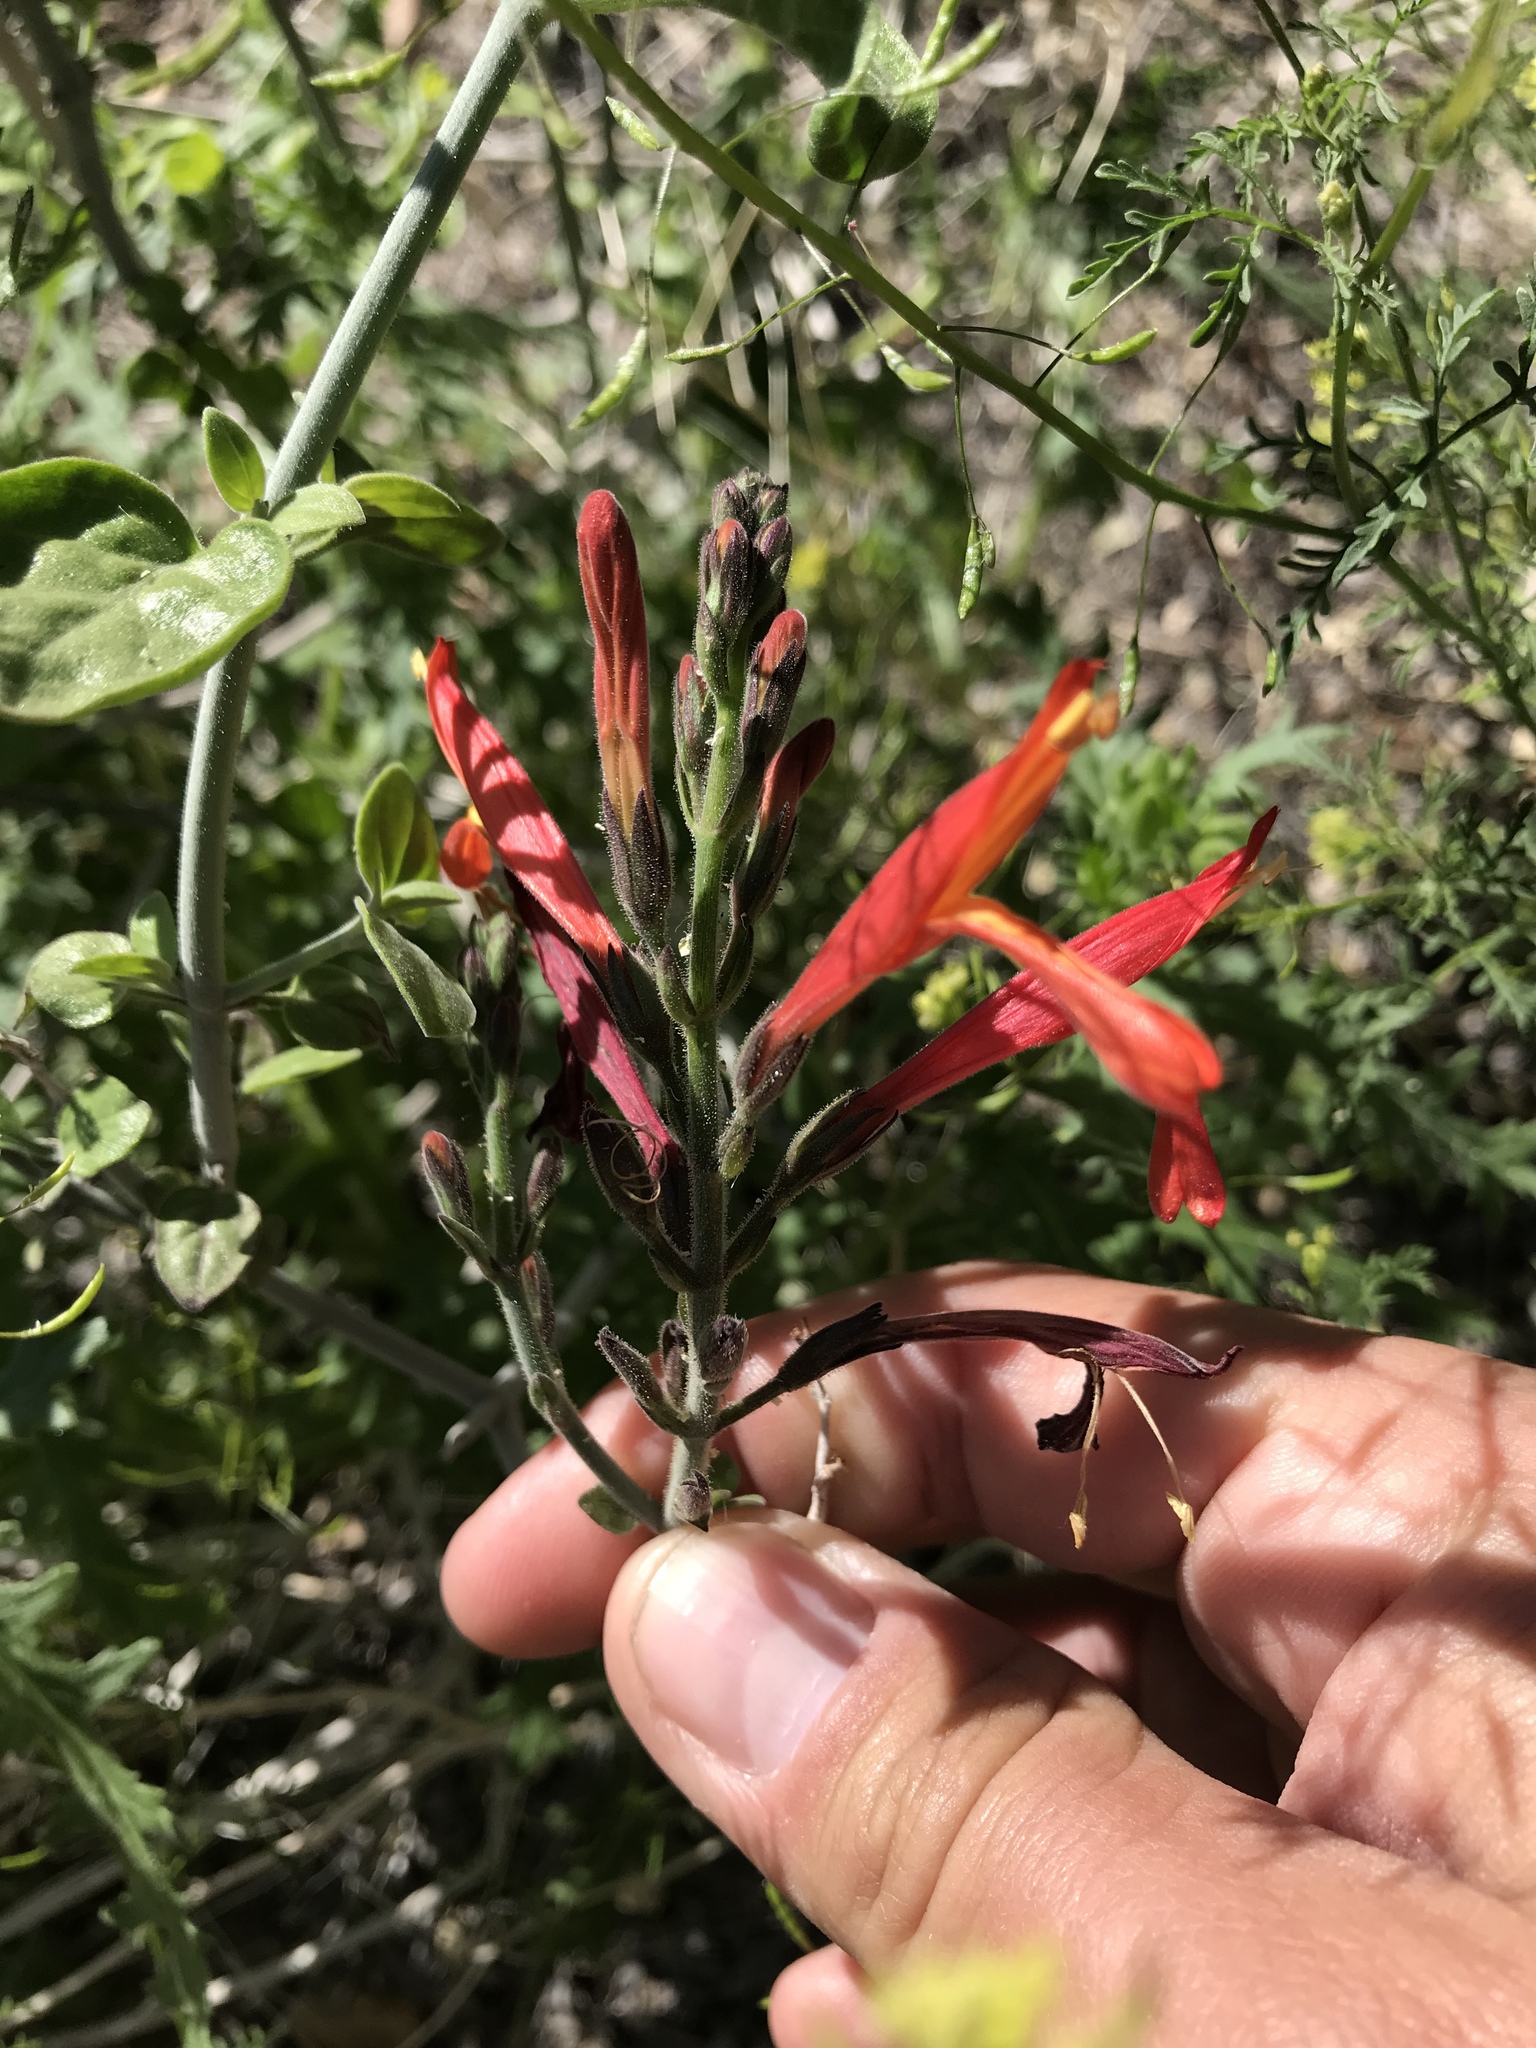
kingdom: Plantae
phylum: Tracheophyta
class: Magnoliopsida
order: Lamiales
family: Acanthaceae
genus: Justicia
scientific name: Justicia californica
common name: Chuparosa-honeysuckle
